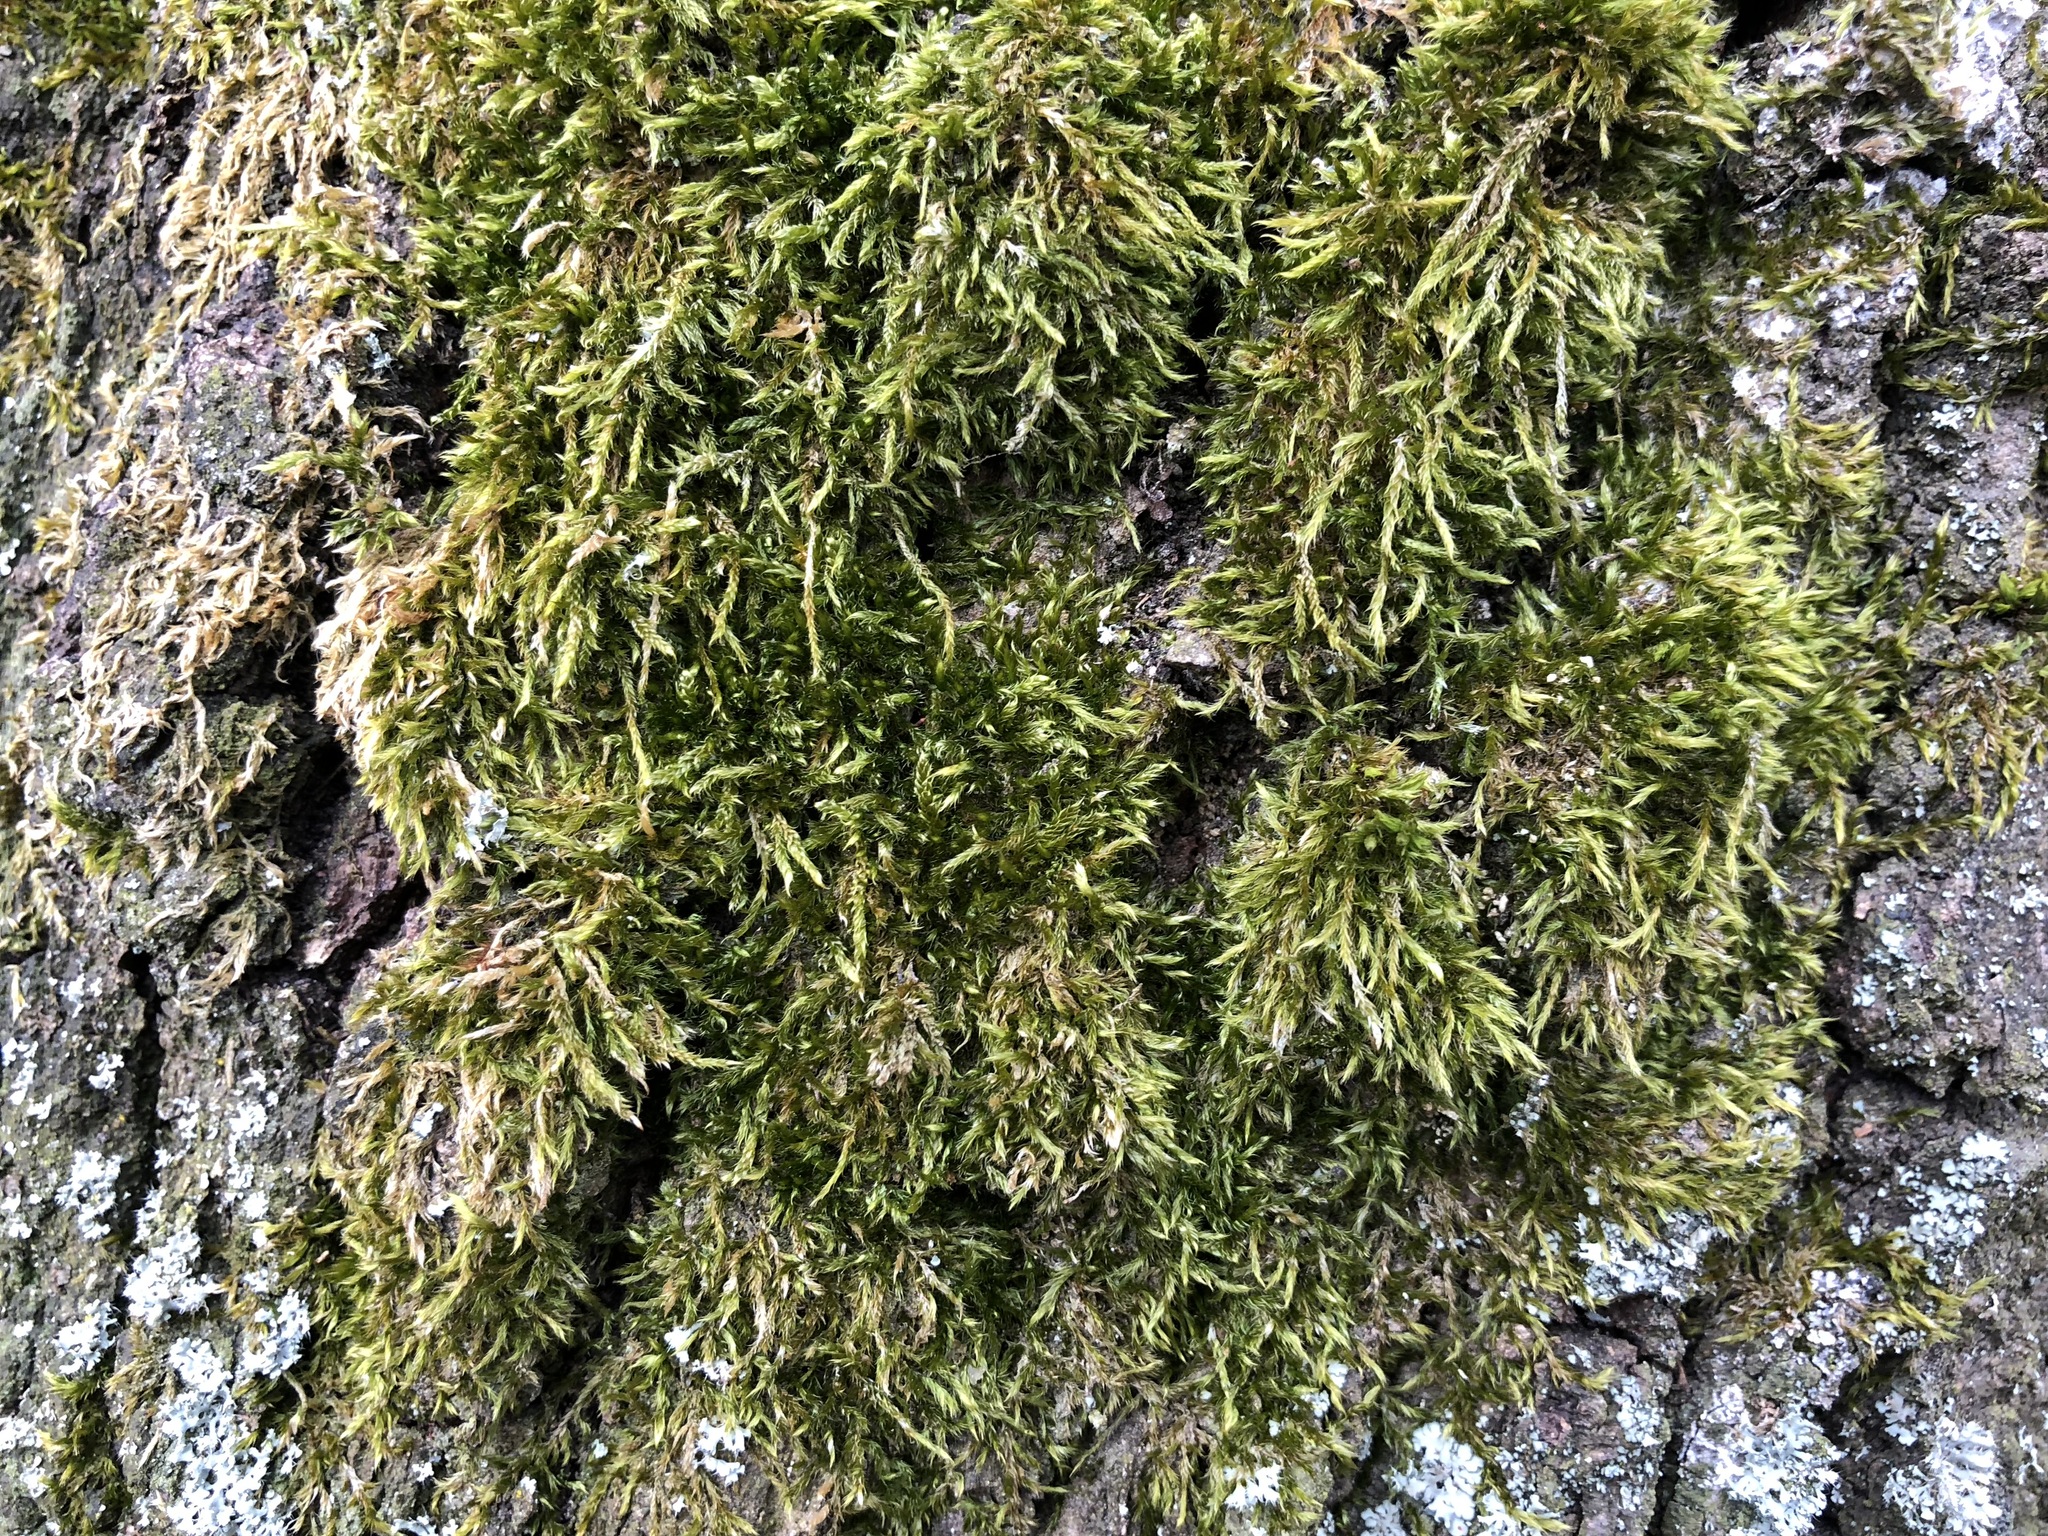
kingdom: Plantae
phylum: Bryophyta
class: Bryopsida
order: Hypnales
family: Hypnaceae
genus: Hypnum
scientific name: Hypnum cupressiforme
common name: Cypress-leaved plait-moss
